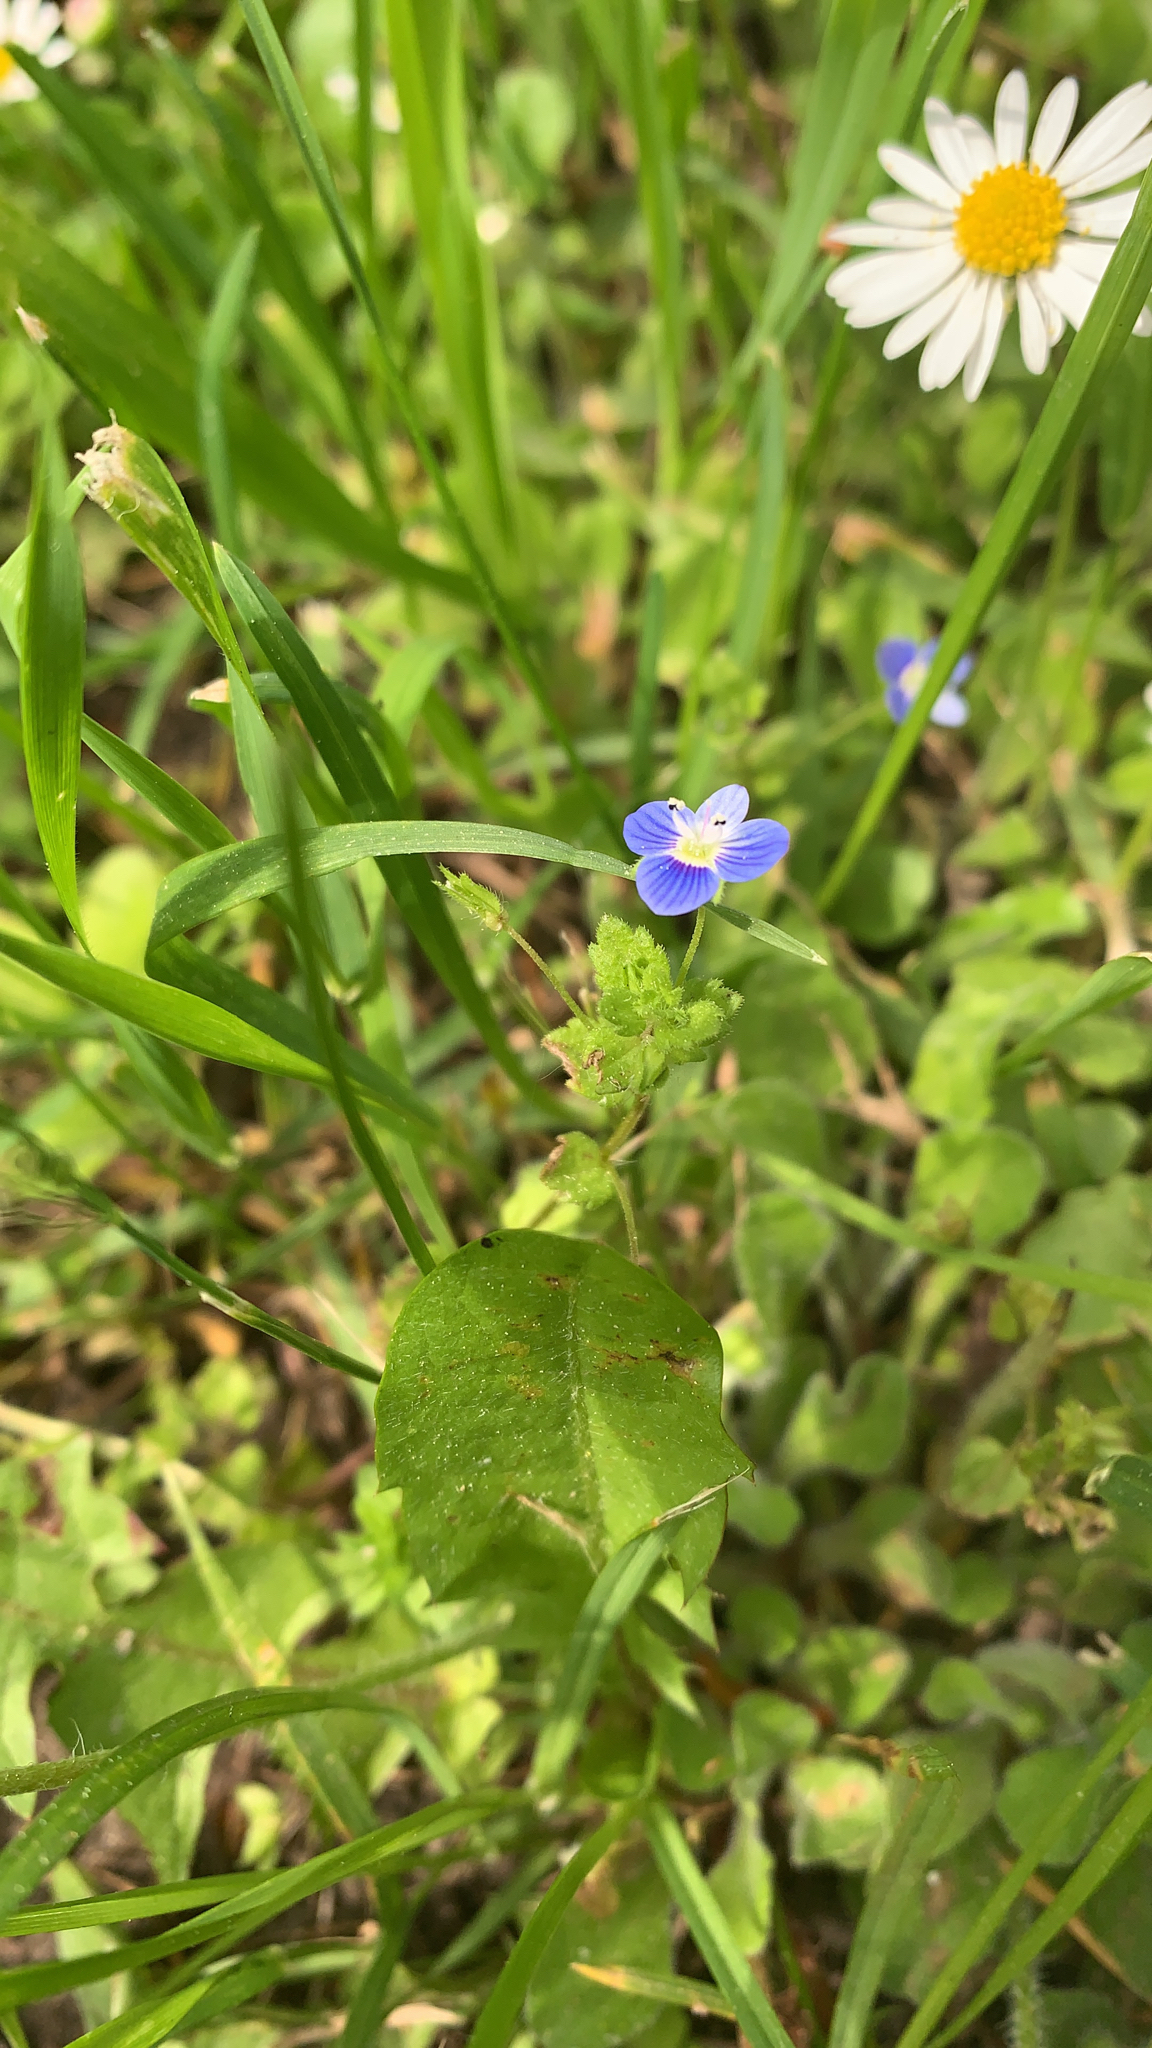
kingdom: Plantae
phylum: Tracheophyta
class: Magnoliopsida
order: Lamiales
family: Plantaginaceae
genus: Veronica
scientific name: Veronica persica
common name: Common field-speedwell
